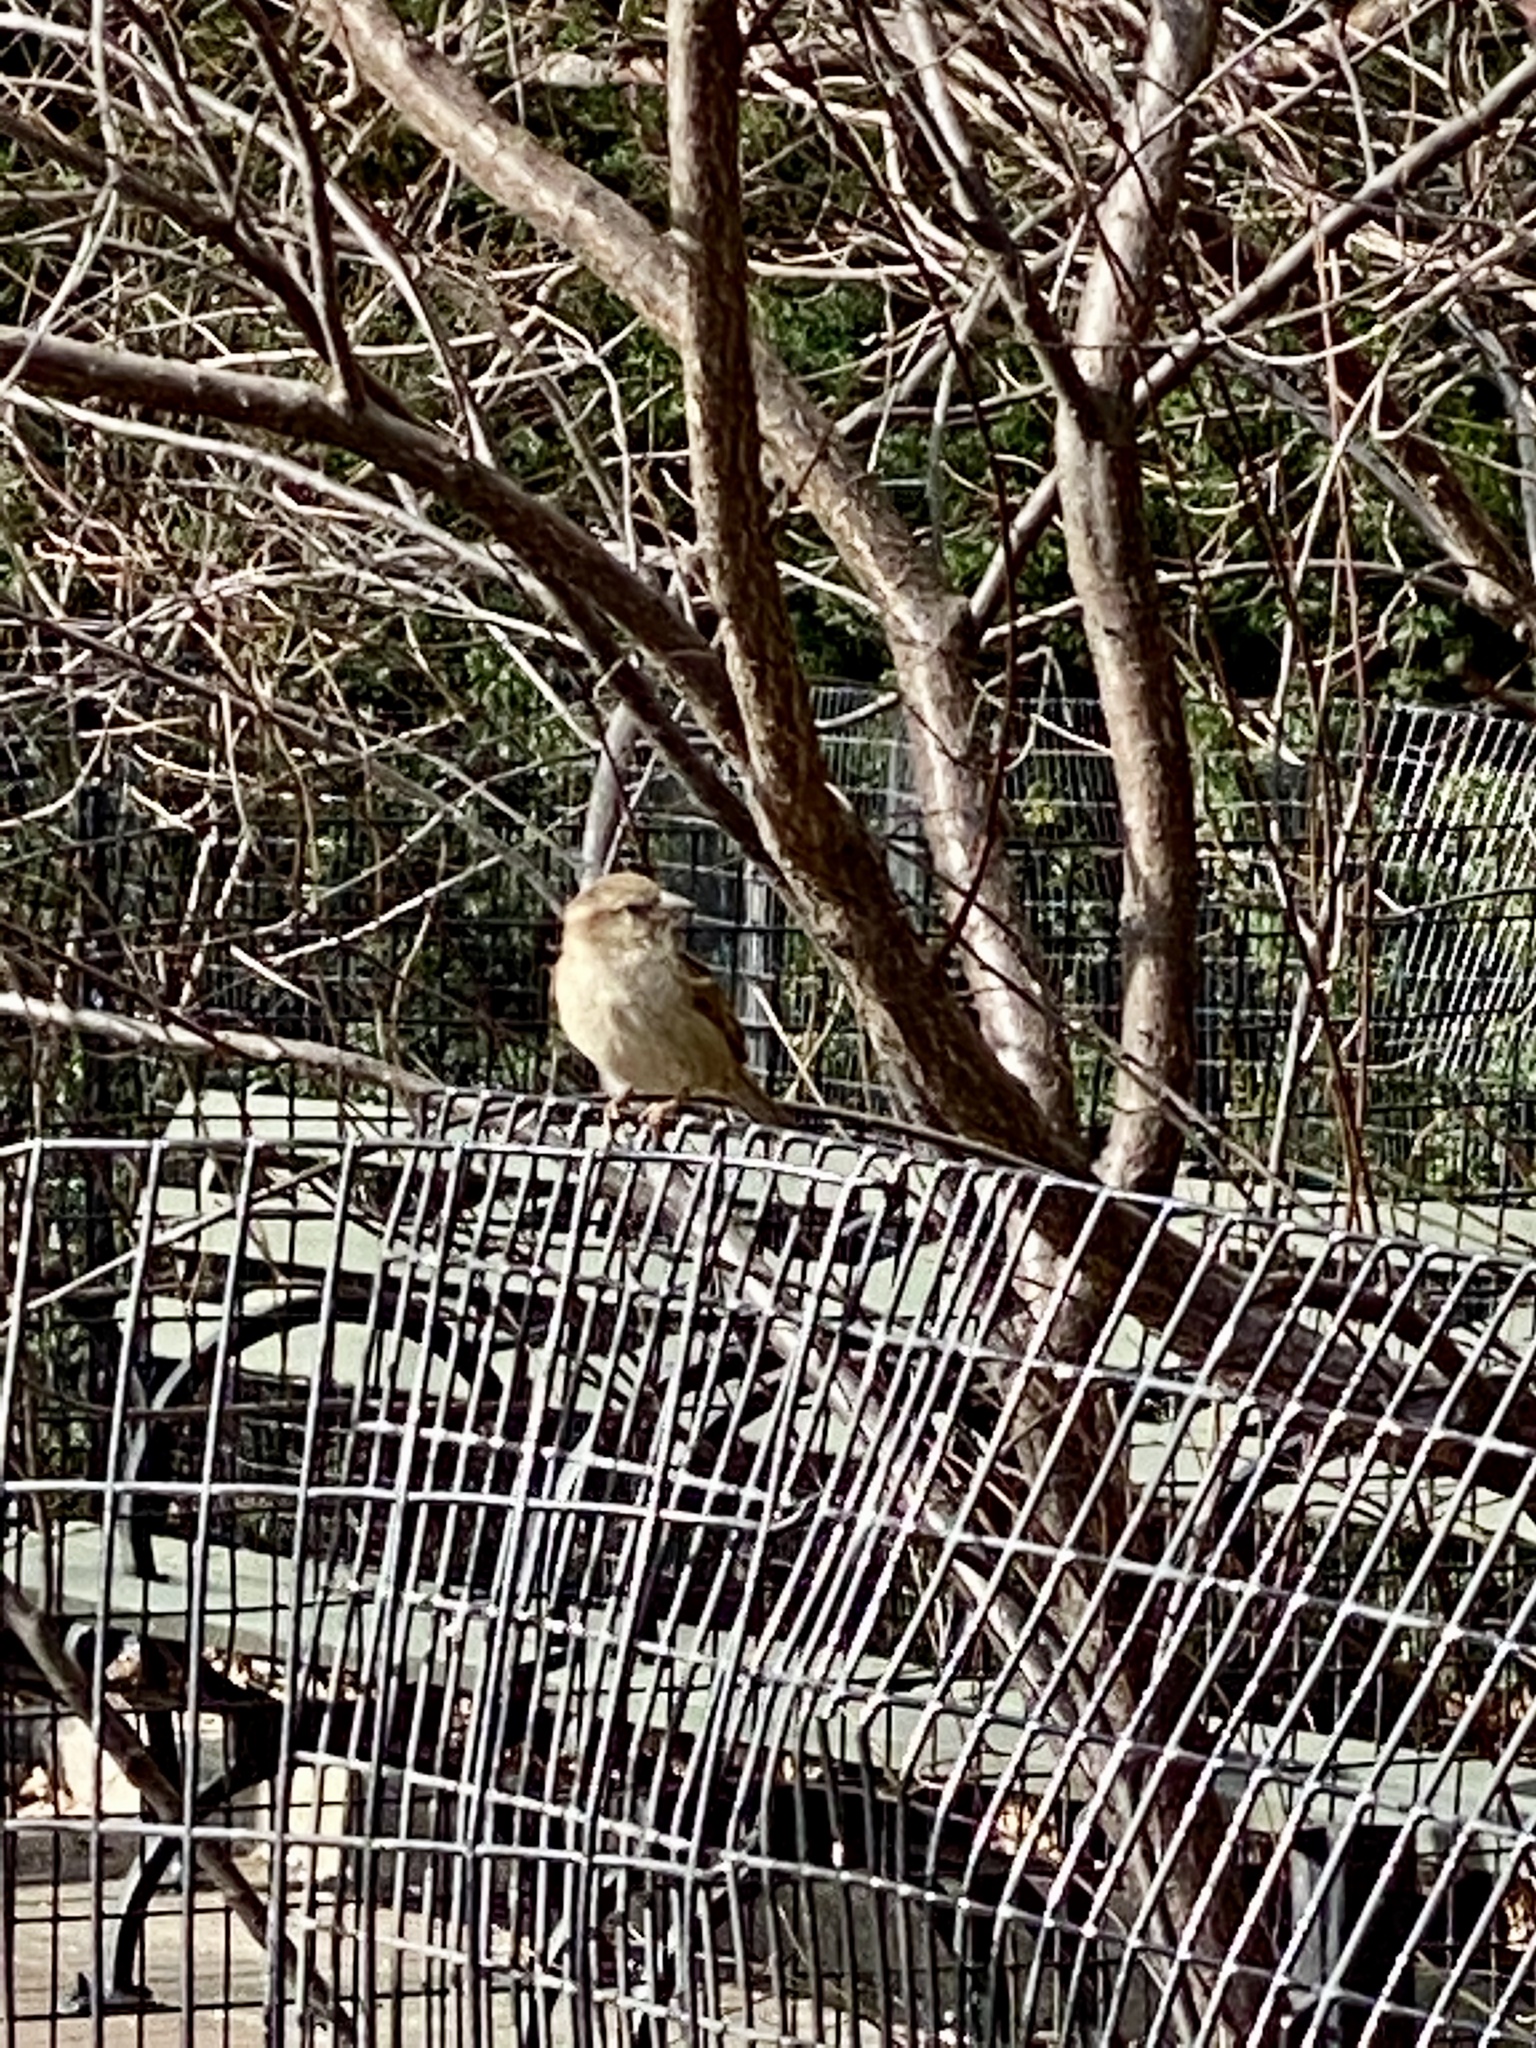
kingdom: Animalia
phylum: Chordata
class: Aves
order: Passeriformes
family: Passeridae
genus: Passer
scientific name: Passer domesticus
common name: House sparrow
